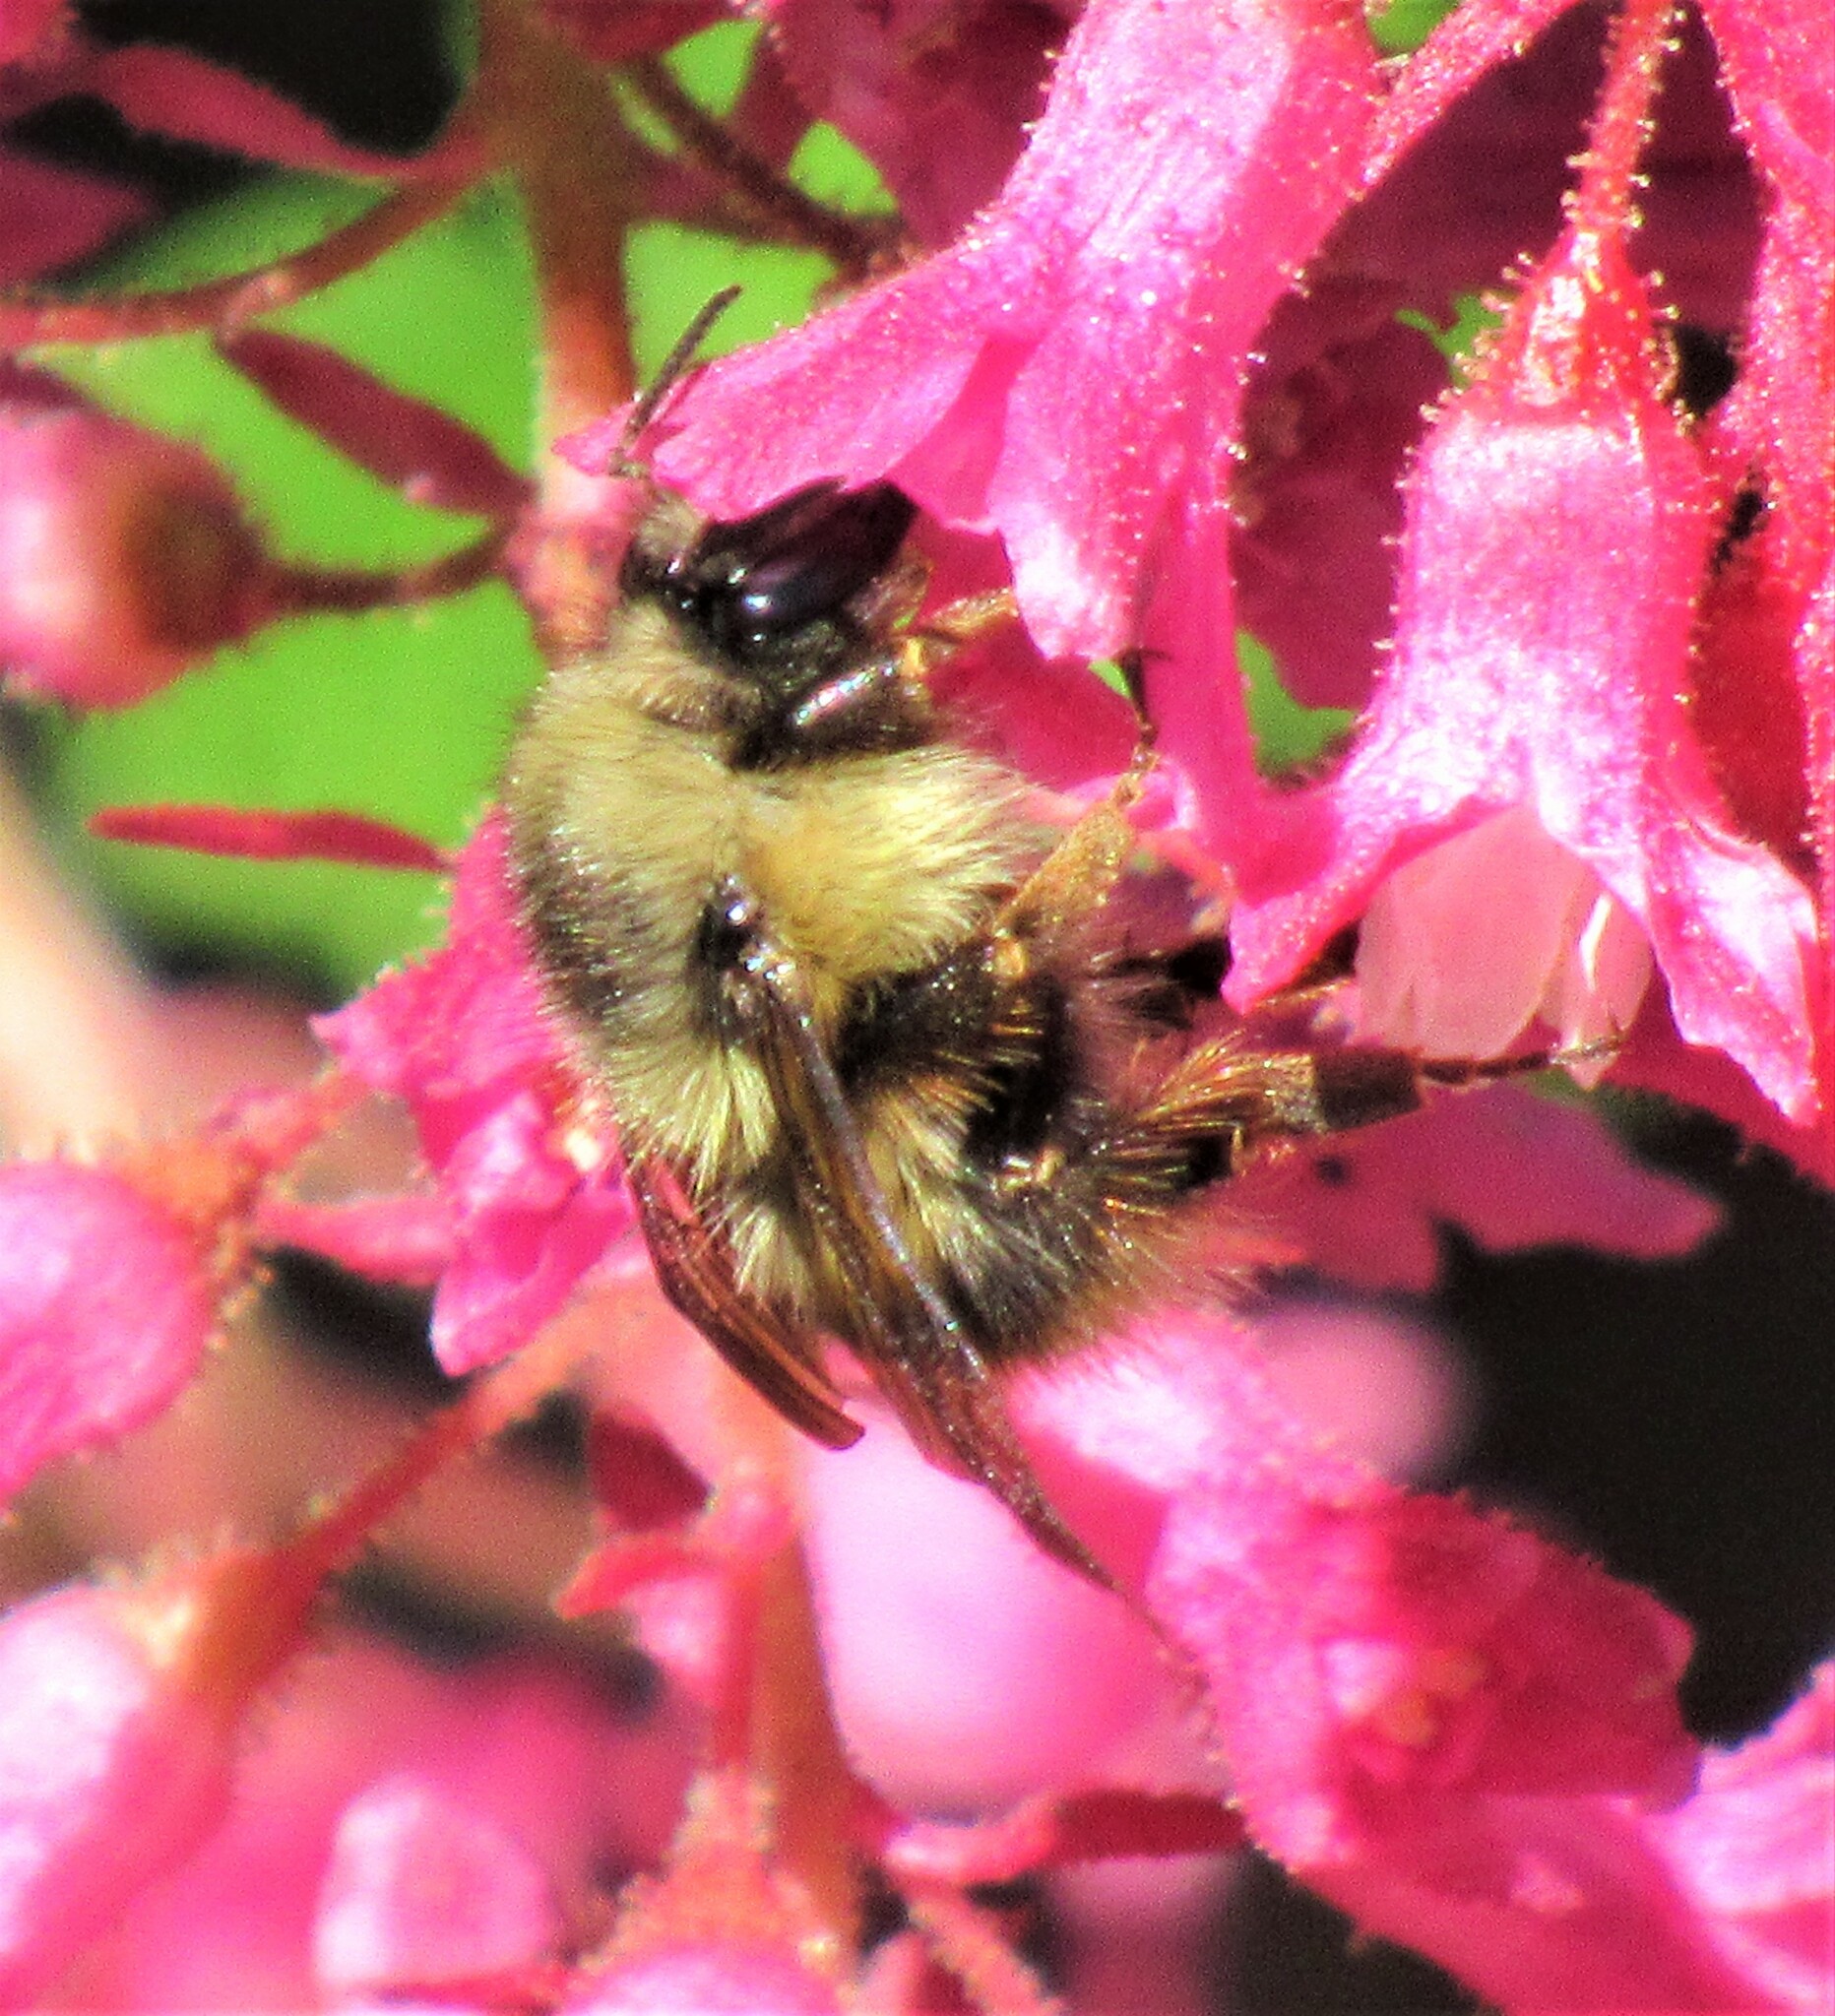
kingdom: Animalia
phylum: Arthropoda
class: Insecta
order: Hymenoptera
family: Apidae
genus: Bombus
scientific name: Bombus mixtus
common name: Fuzzy-horned bumble bee
